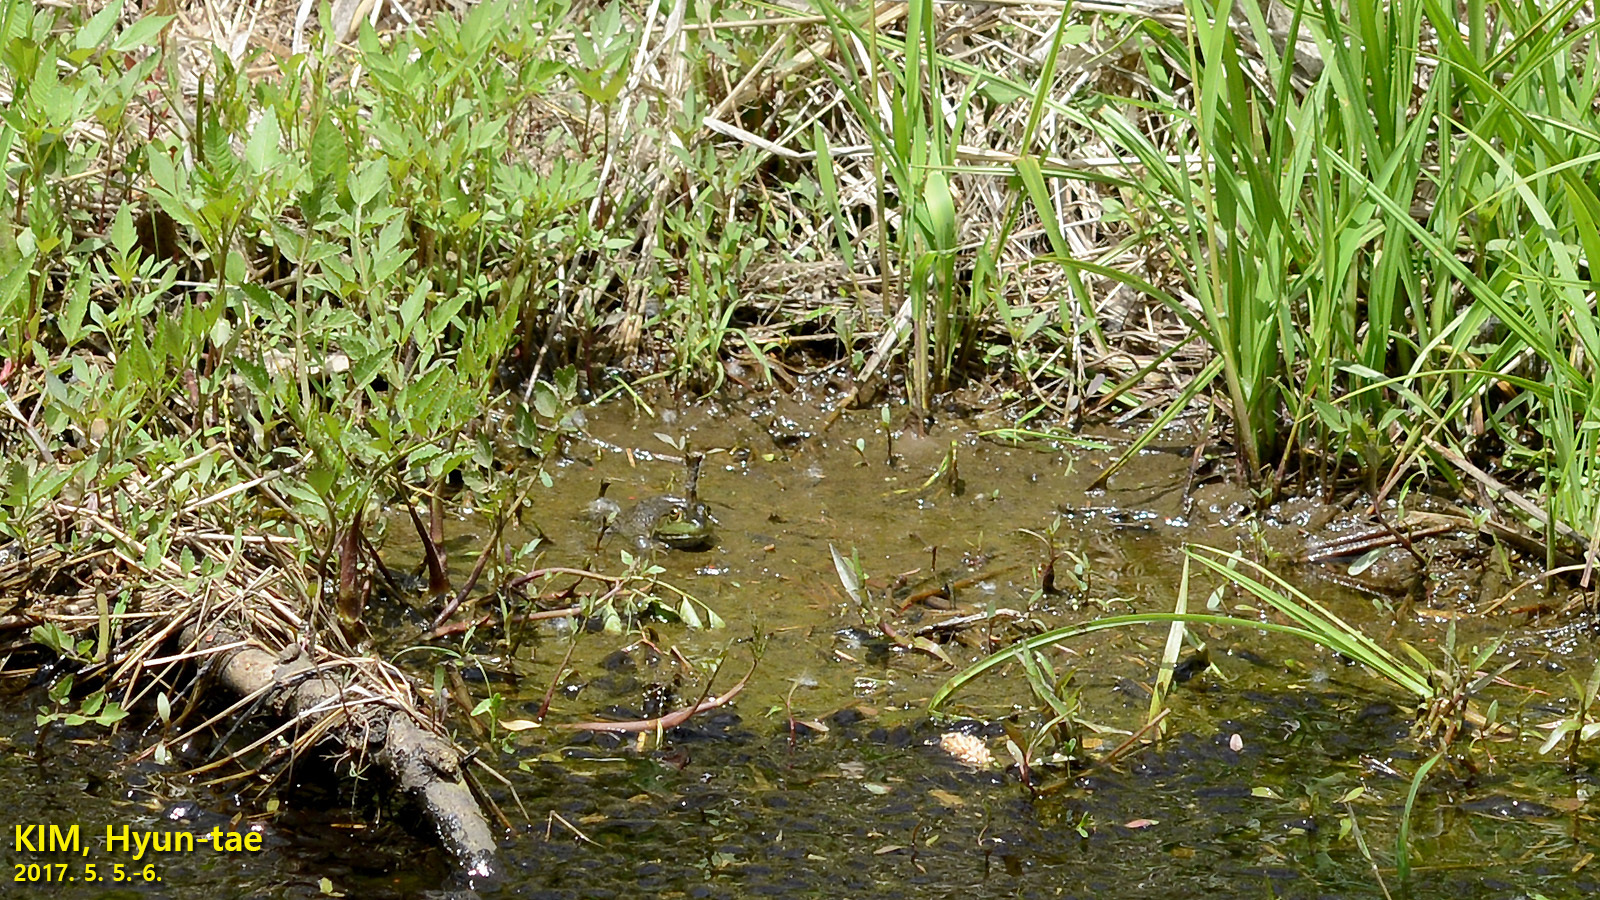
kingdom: Animalia
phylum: Chordata
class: Amphibia
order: Anura
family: Ranidae
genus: Lithobates
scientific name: Lithobates catesbeianus
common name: American bullfrog
